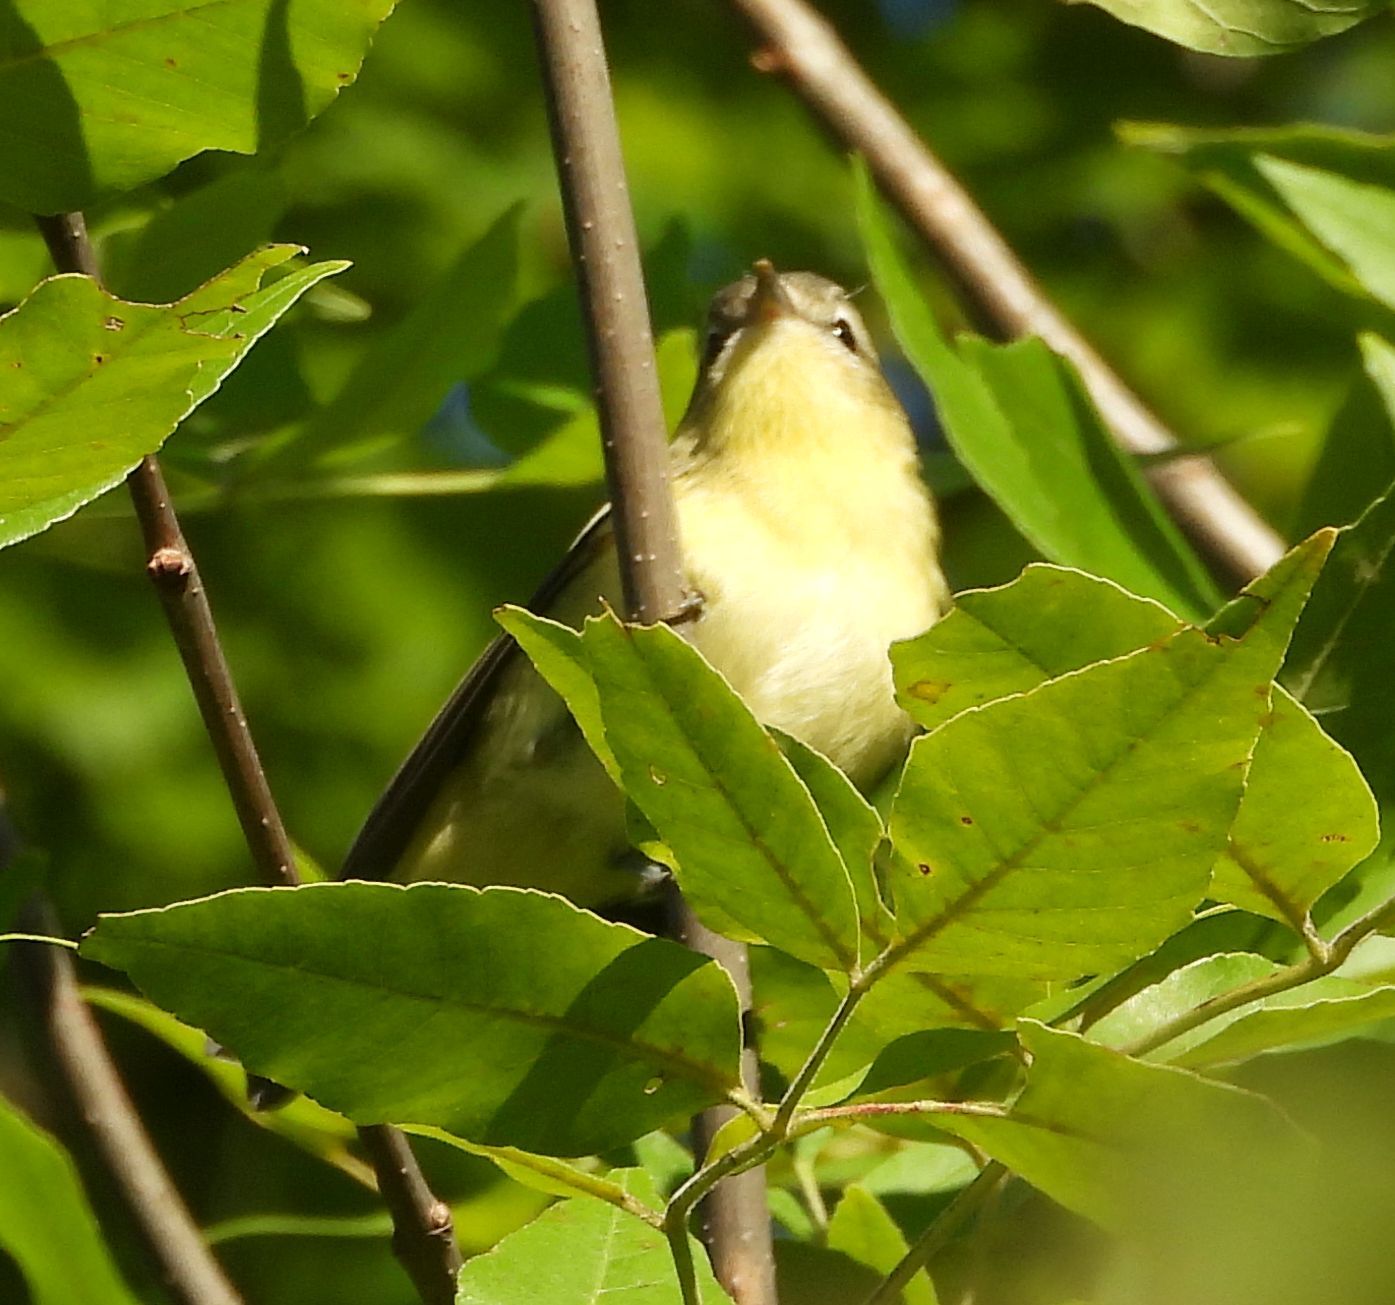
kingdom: Animalia
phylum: Chordata
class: Aves
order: Passeriformes
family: Vireonidae
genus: Vireo
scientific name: Vireo philadelphicus
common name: Philadelphia vireo
